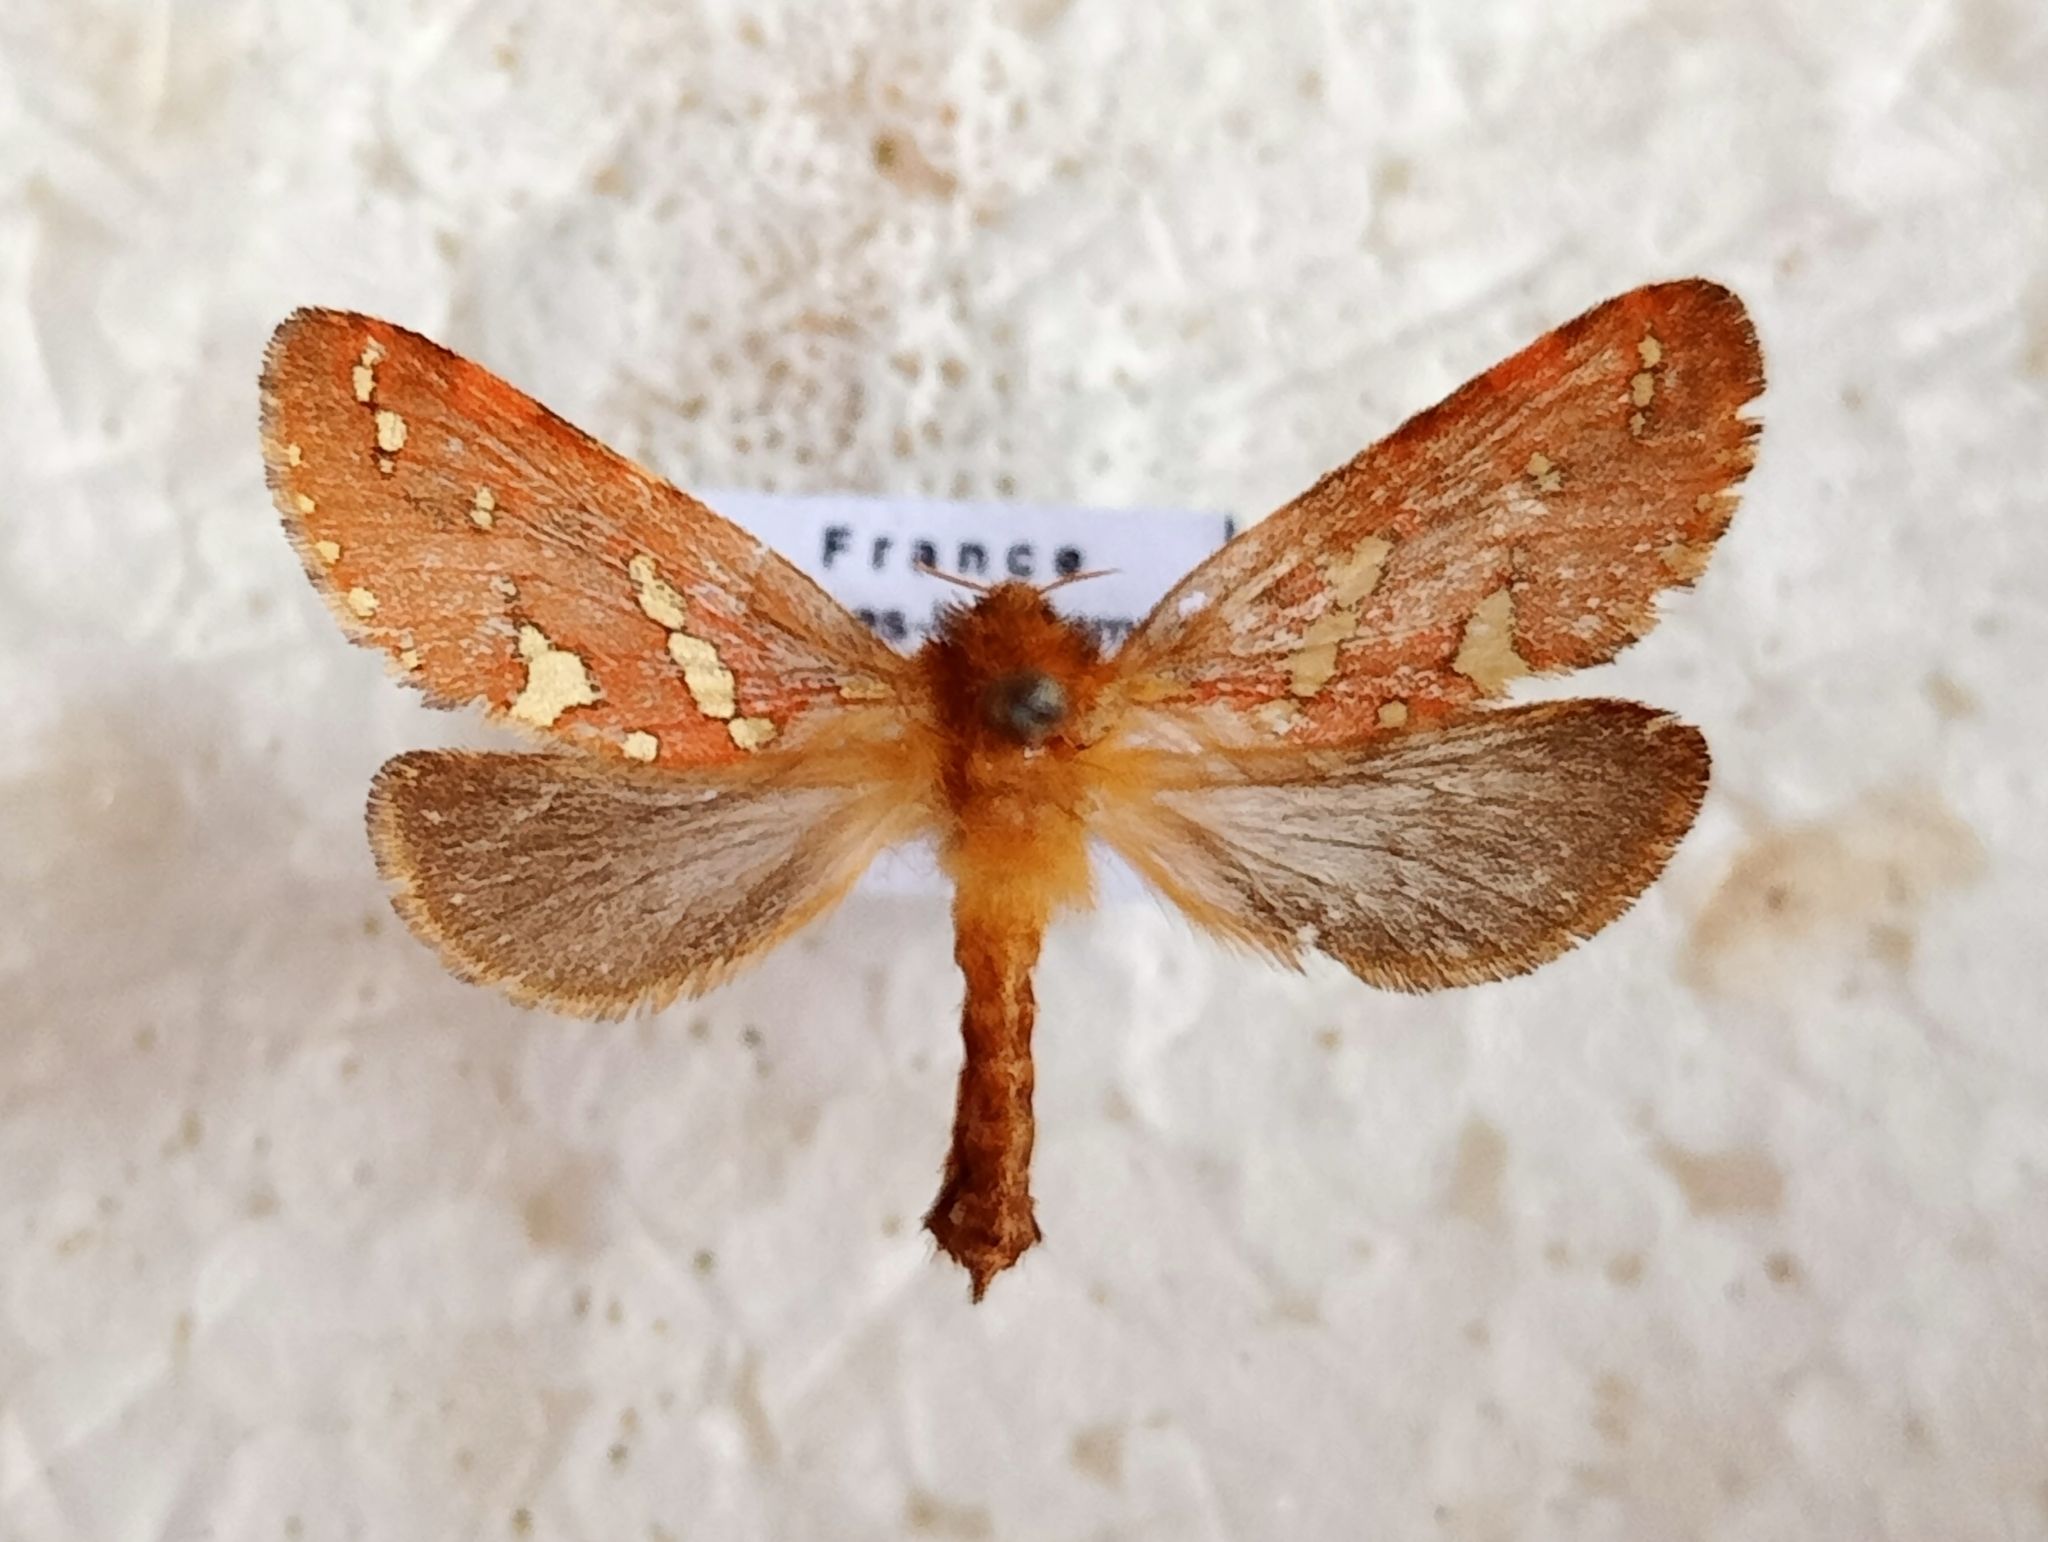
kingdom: Animalia
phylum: Arthropoda
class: Insecta
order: Lepidoptera
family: Hepialidae
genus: Phymatopus
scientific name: Phymatopus hecta
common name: Gold swift
